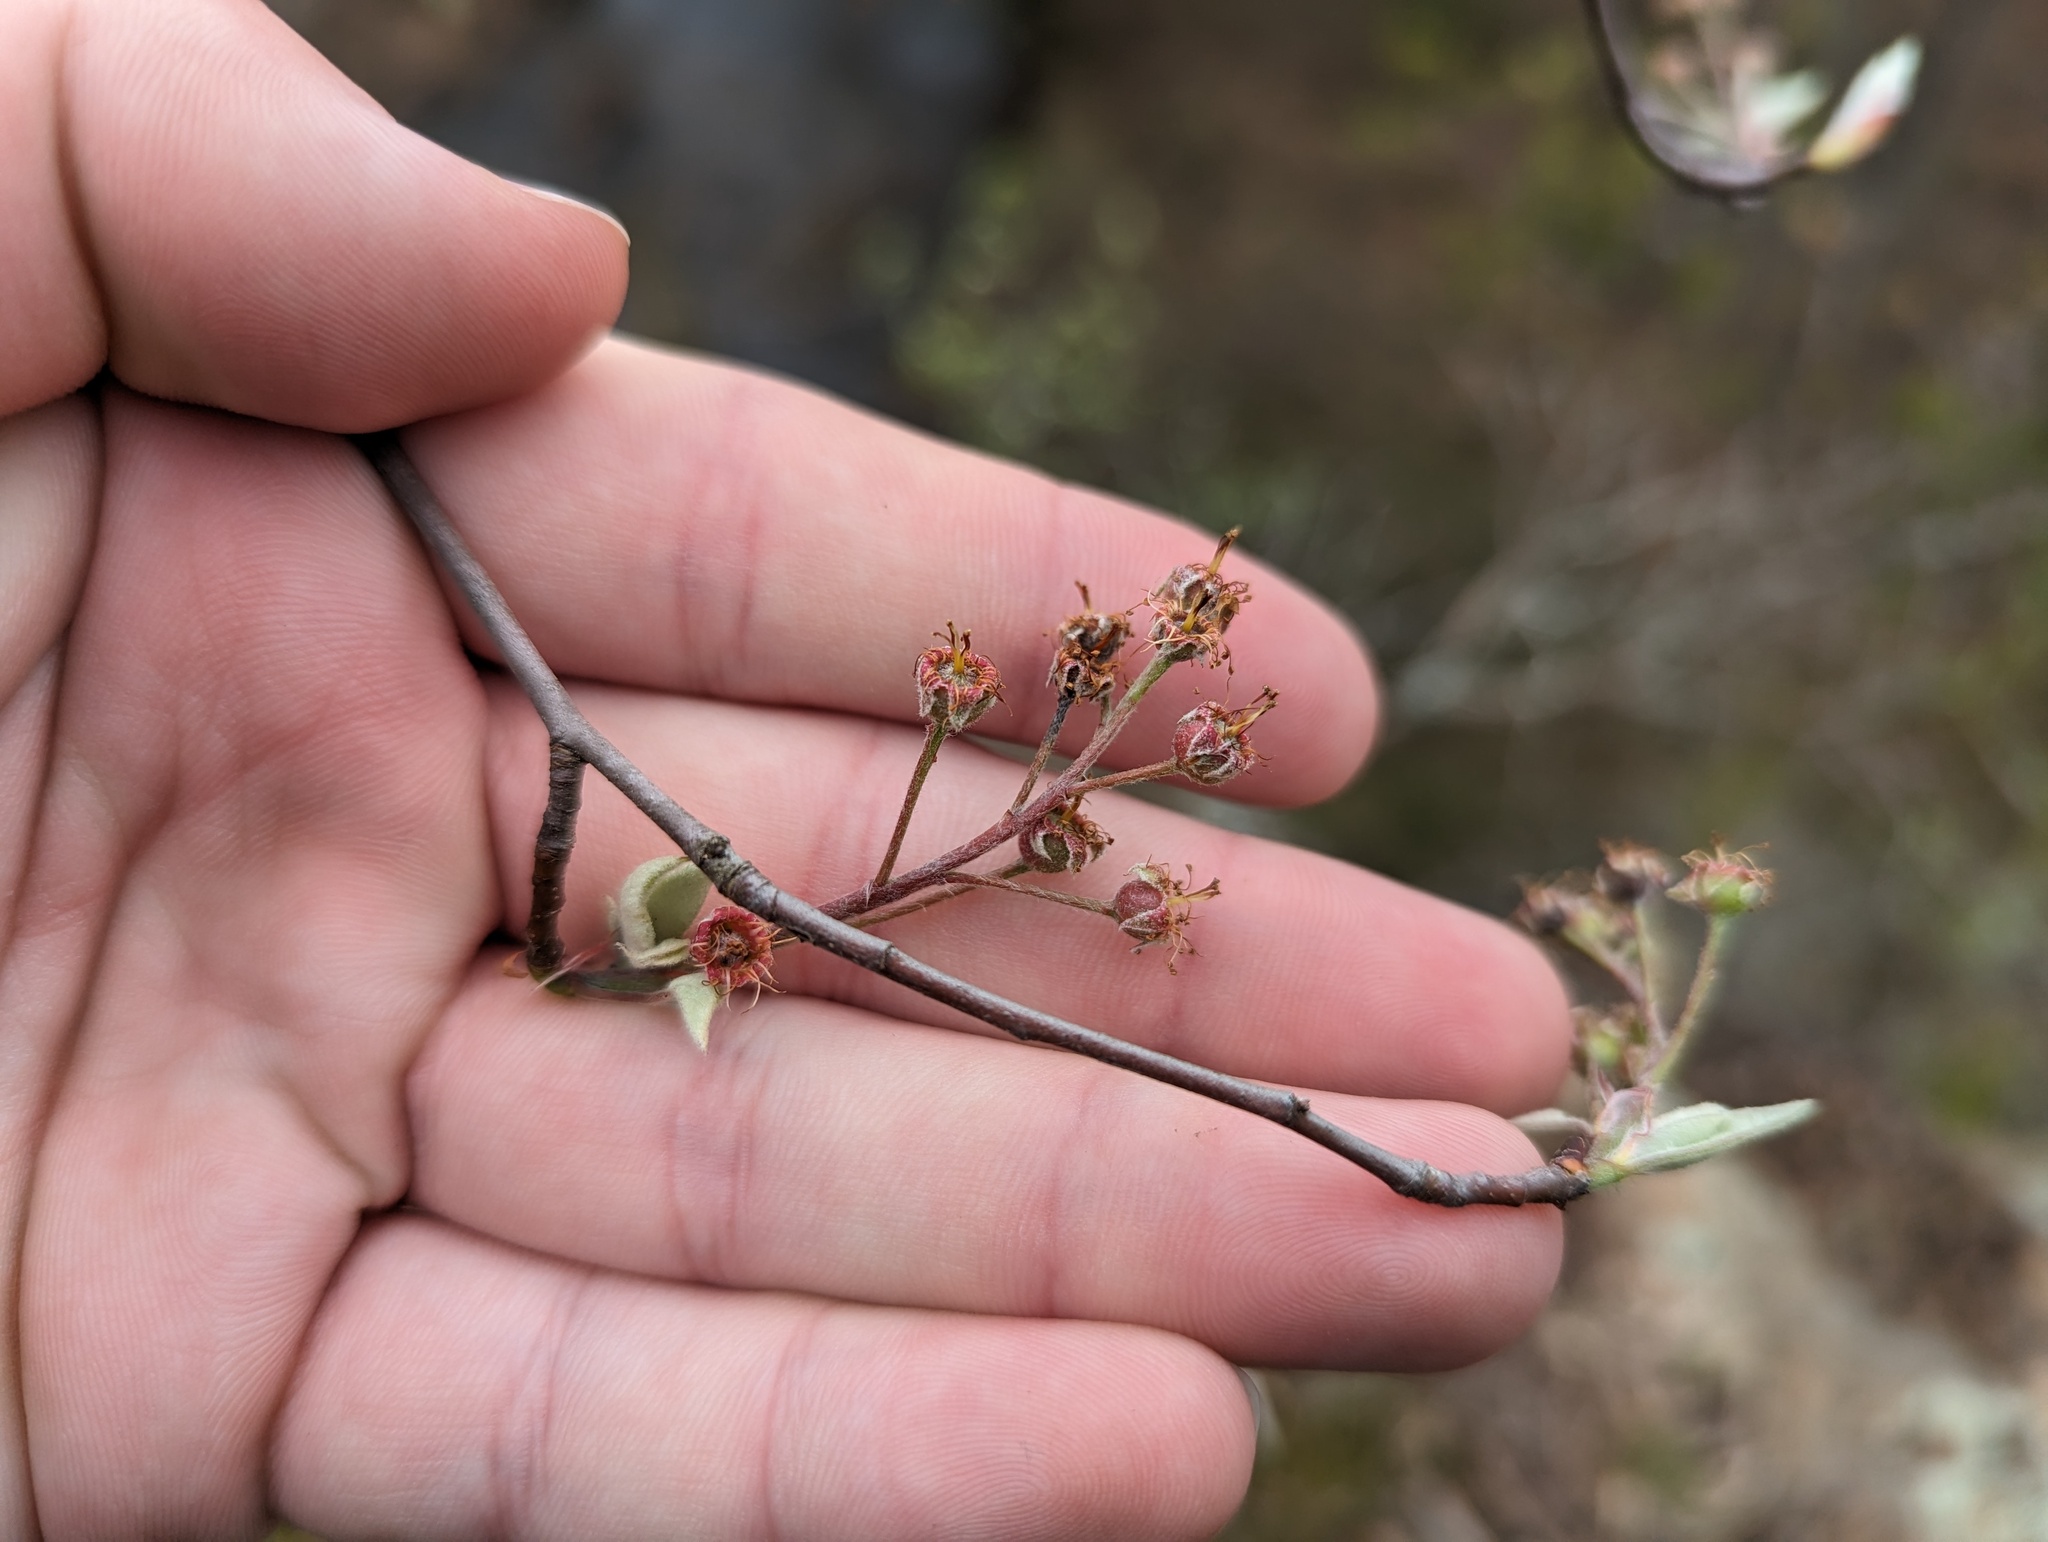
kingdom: Plantae
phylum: Tracheophyta
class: Magnoliopsida
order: Rosales
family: Rosaceae
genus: Amelanchier
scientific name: Amelanchier arborea
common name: Downy serviceberry
